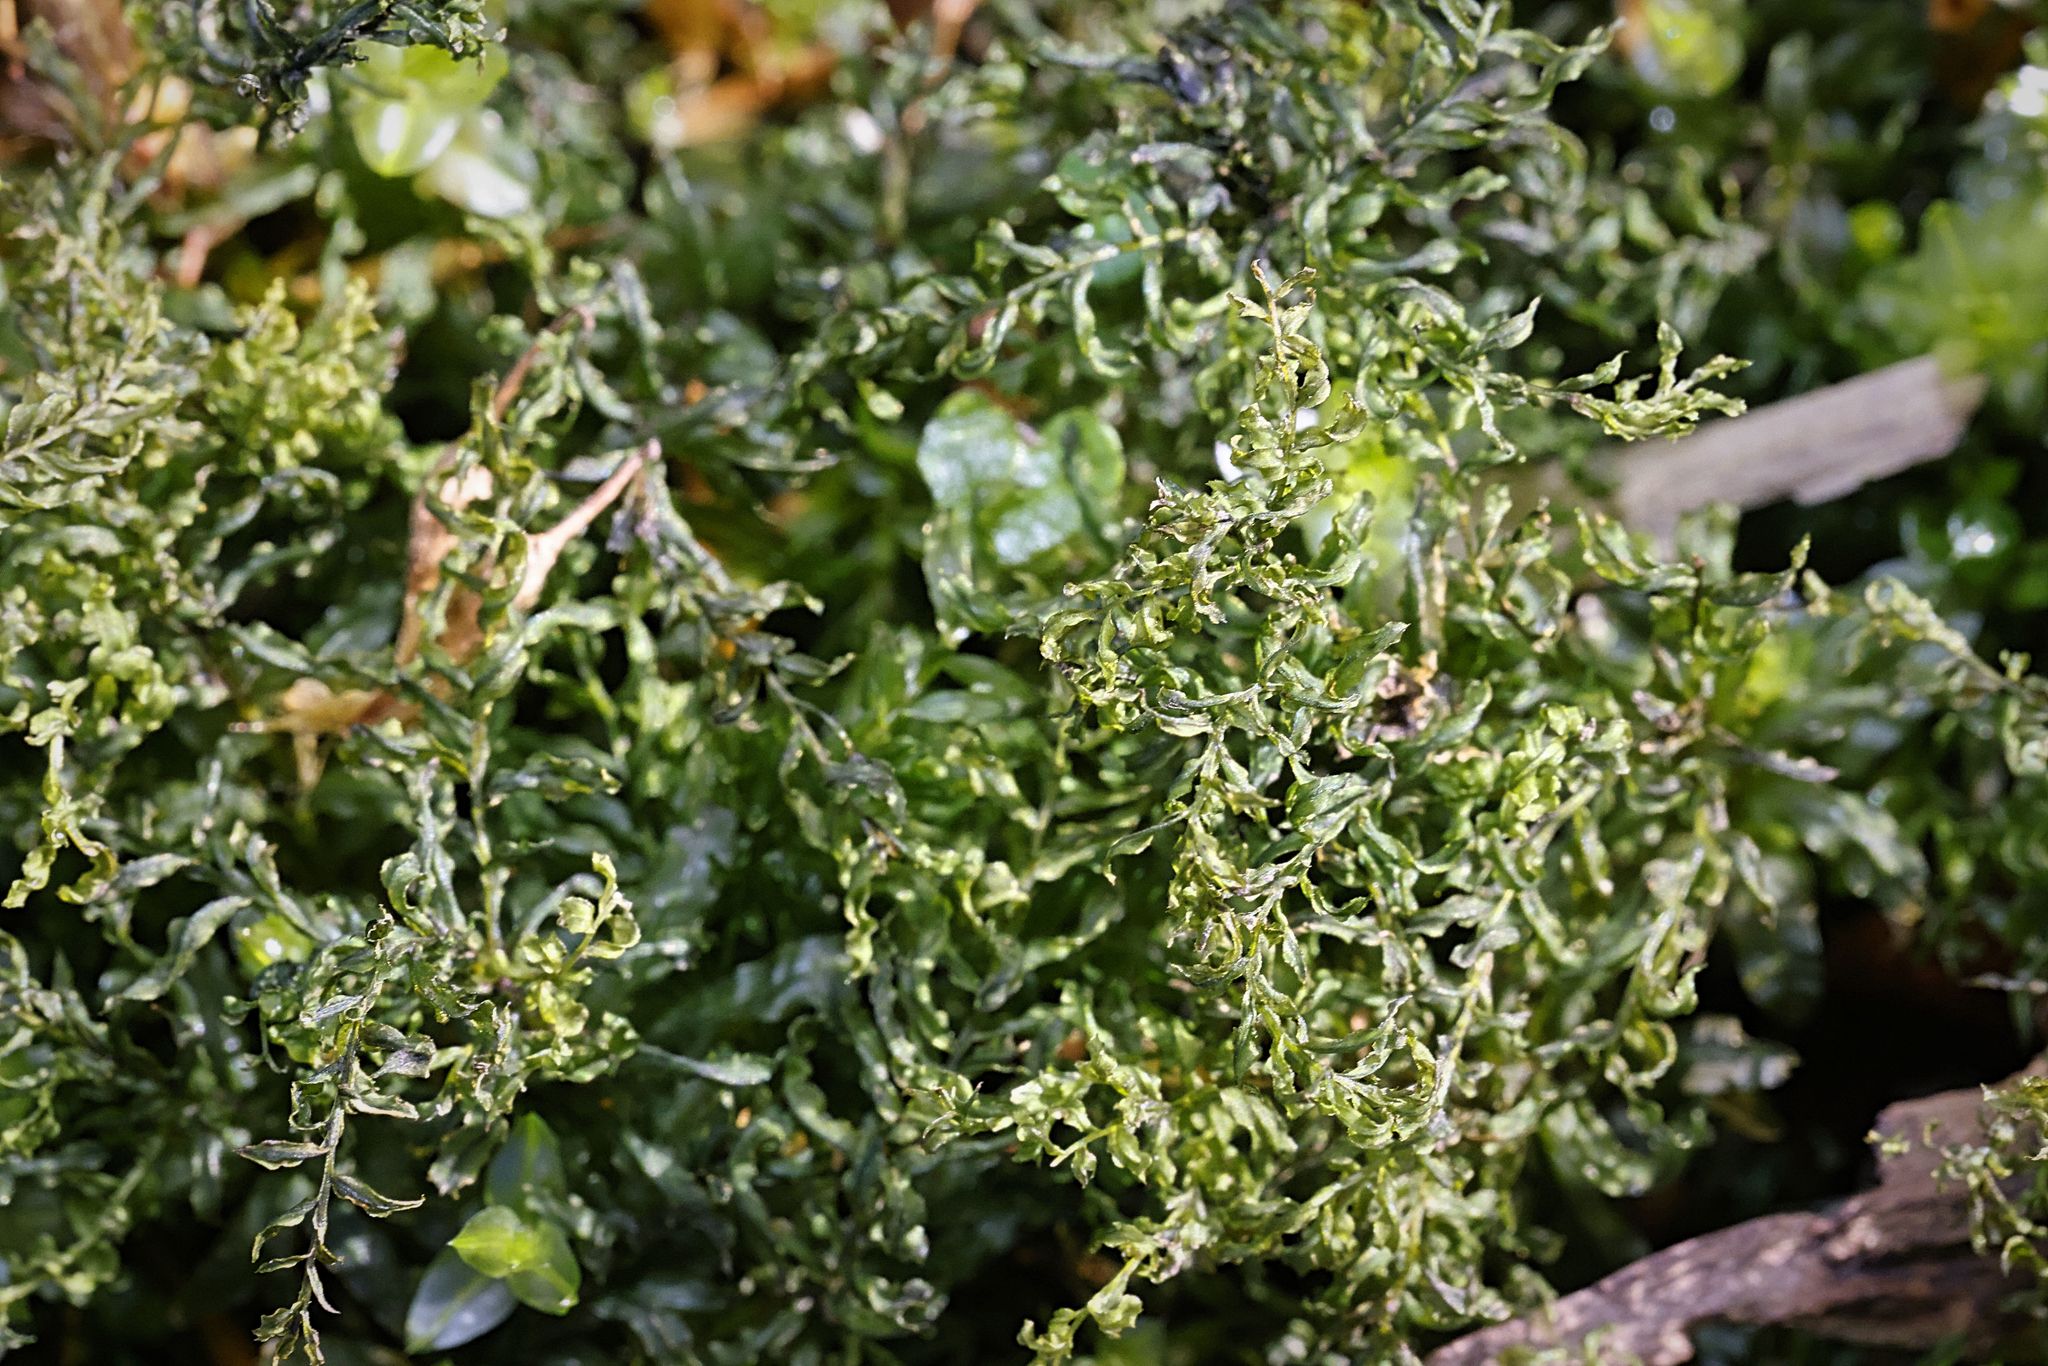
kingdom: Plantae
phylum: Bryophyta
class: Bryopsida
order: Bryales
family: Mniaceae
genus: Plagiomnium
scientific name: Plagiomnium undulatum
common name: Hart's-tongue thyme-moss
